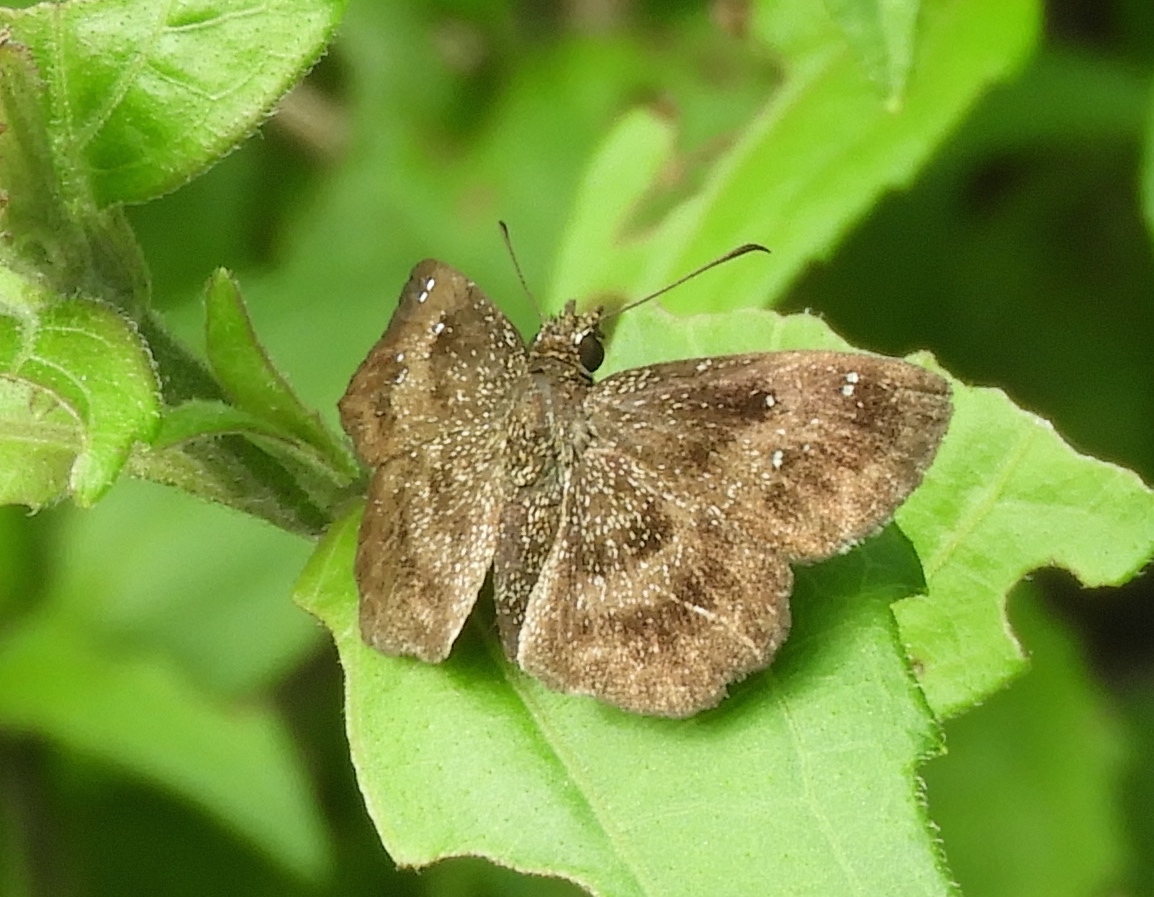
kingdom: Animalia
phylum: Arthropoda
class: Insecta
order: Lepidoptera
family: Hesperiidae
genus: Staphylus
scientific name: Staphylus mazans
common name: Mazans scallopwing
